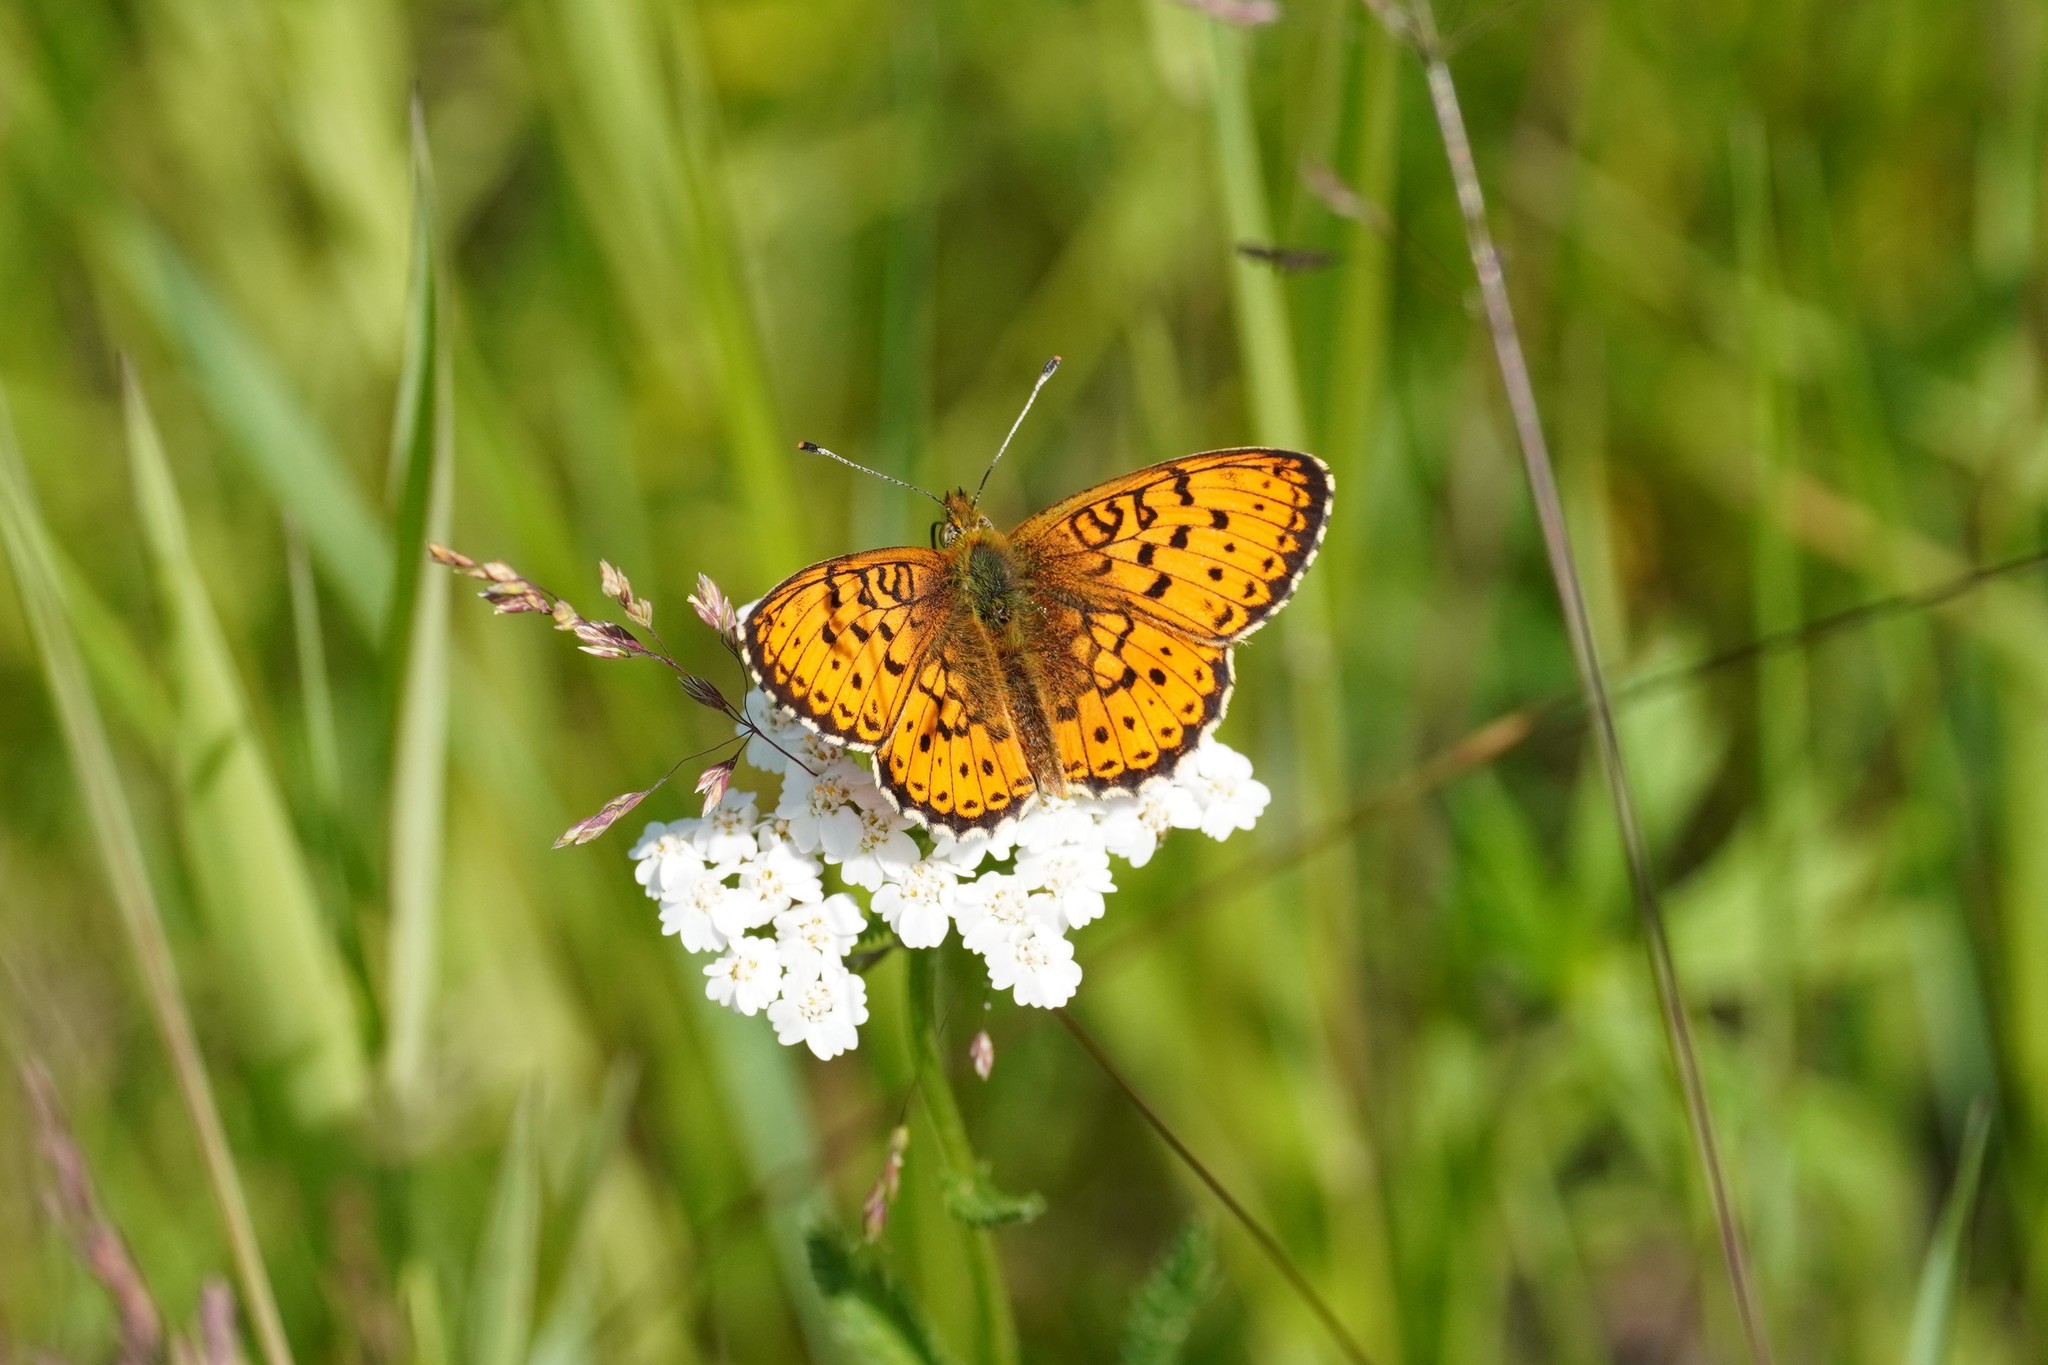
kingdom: Animalia
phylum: Arthropoda
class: Insecta
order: Lepidoptera
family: Nymphalidae
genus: Brenthis
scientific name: Brenthis ino
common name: Lesser marbled fritillary
